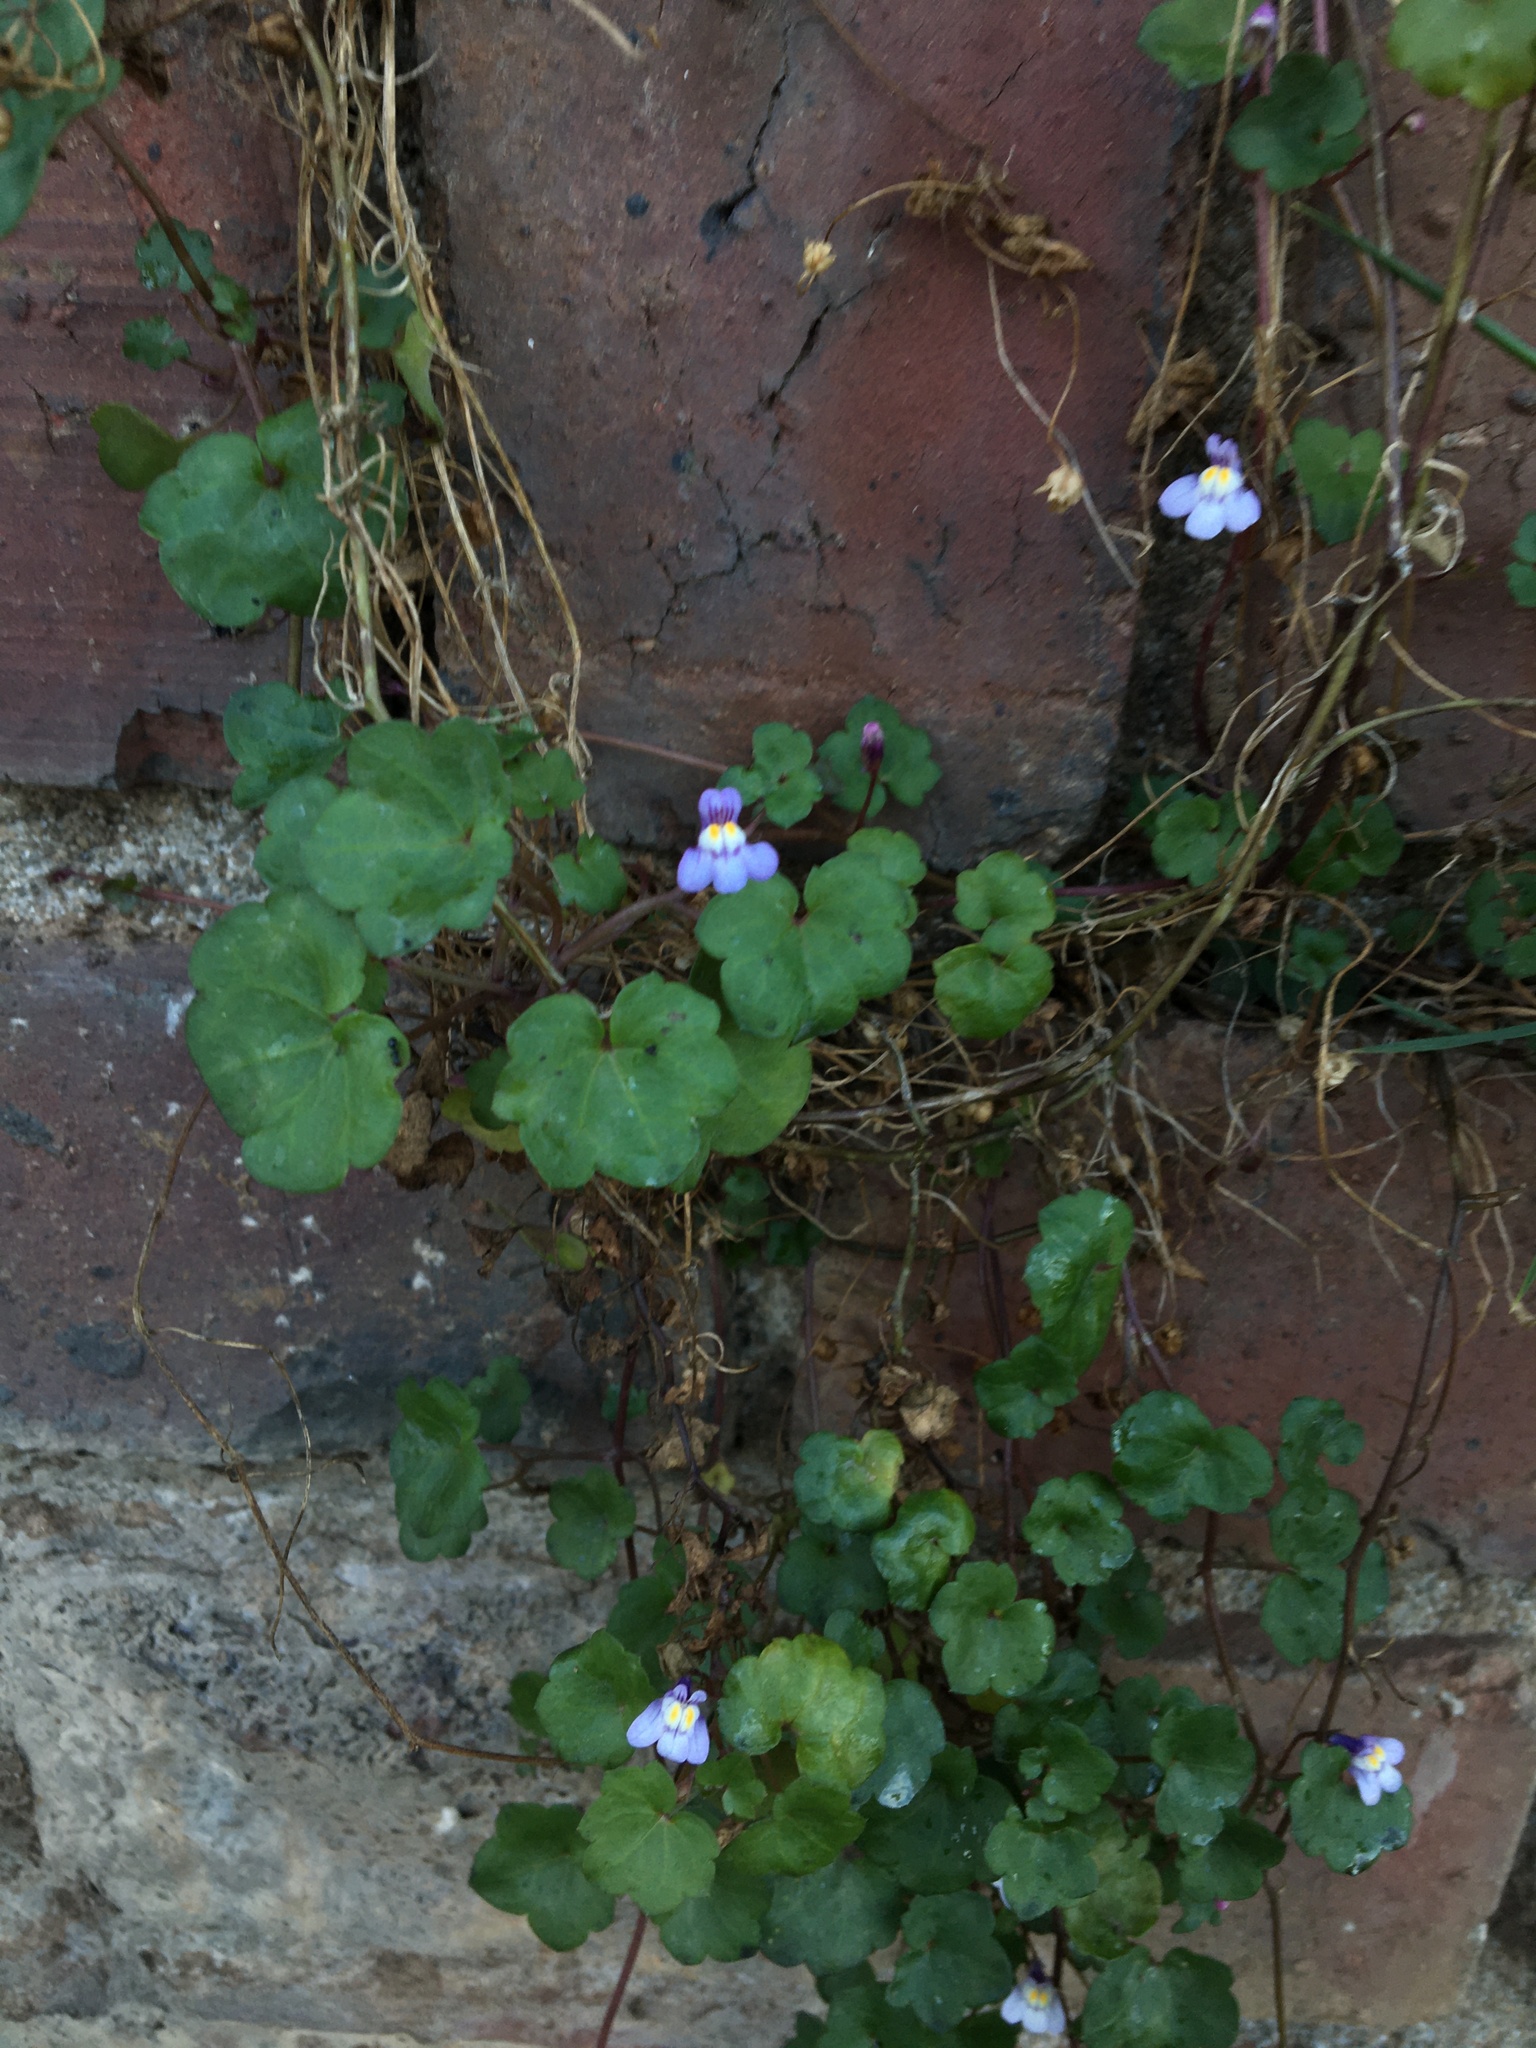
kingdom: Plantae
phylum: Tracheophyta
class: Magnoliopsida
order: Lamiales
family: Plantaginaceae
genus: Cymbalaria
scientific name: Cymbalaria muralis
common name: Ivy-leaved toadflax
